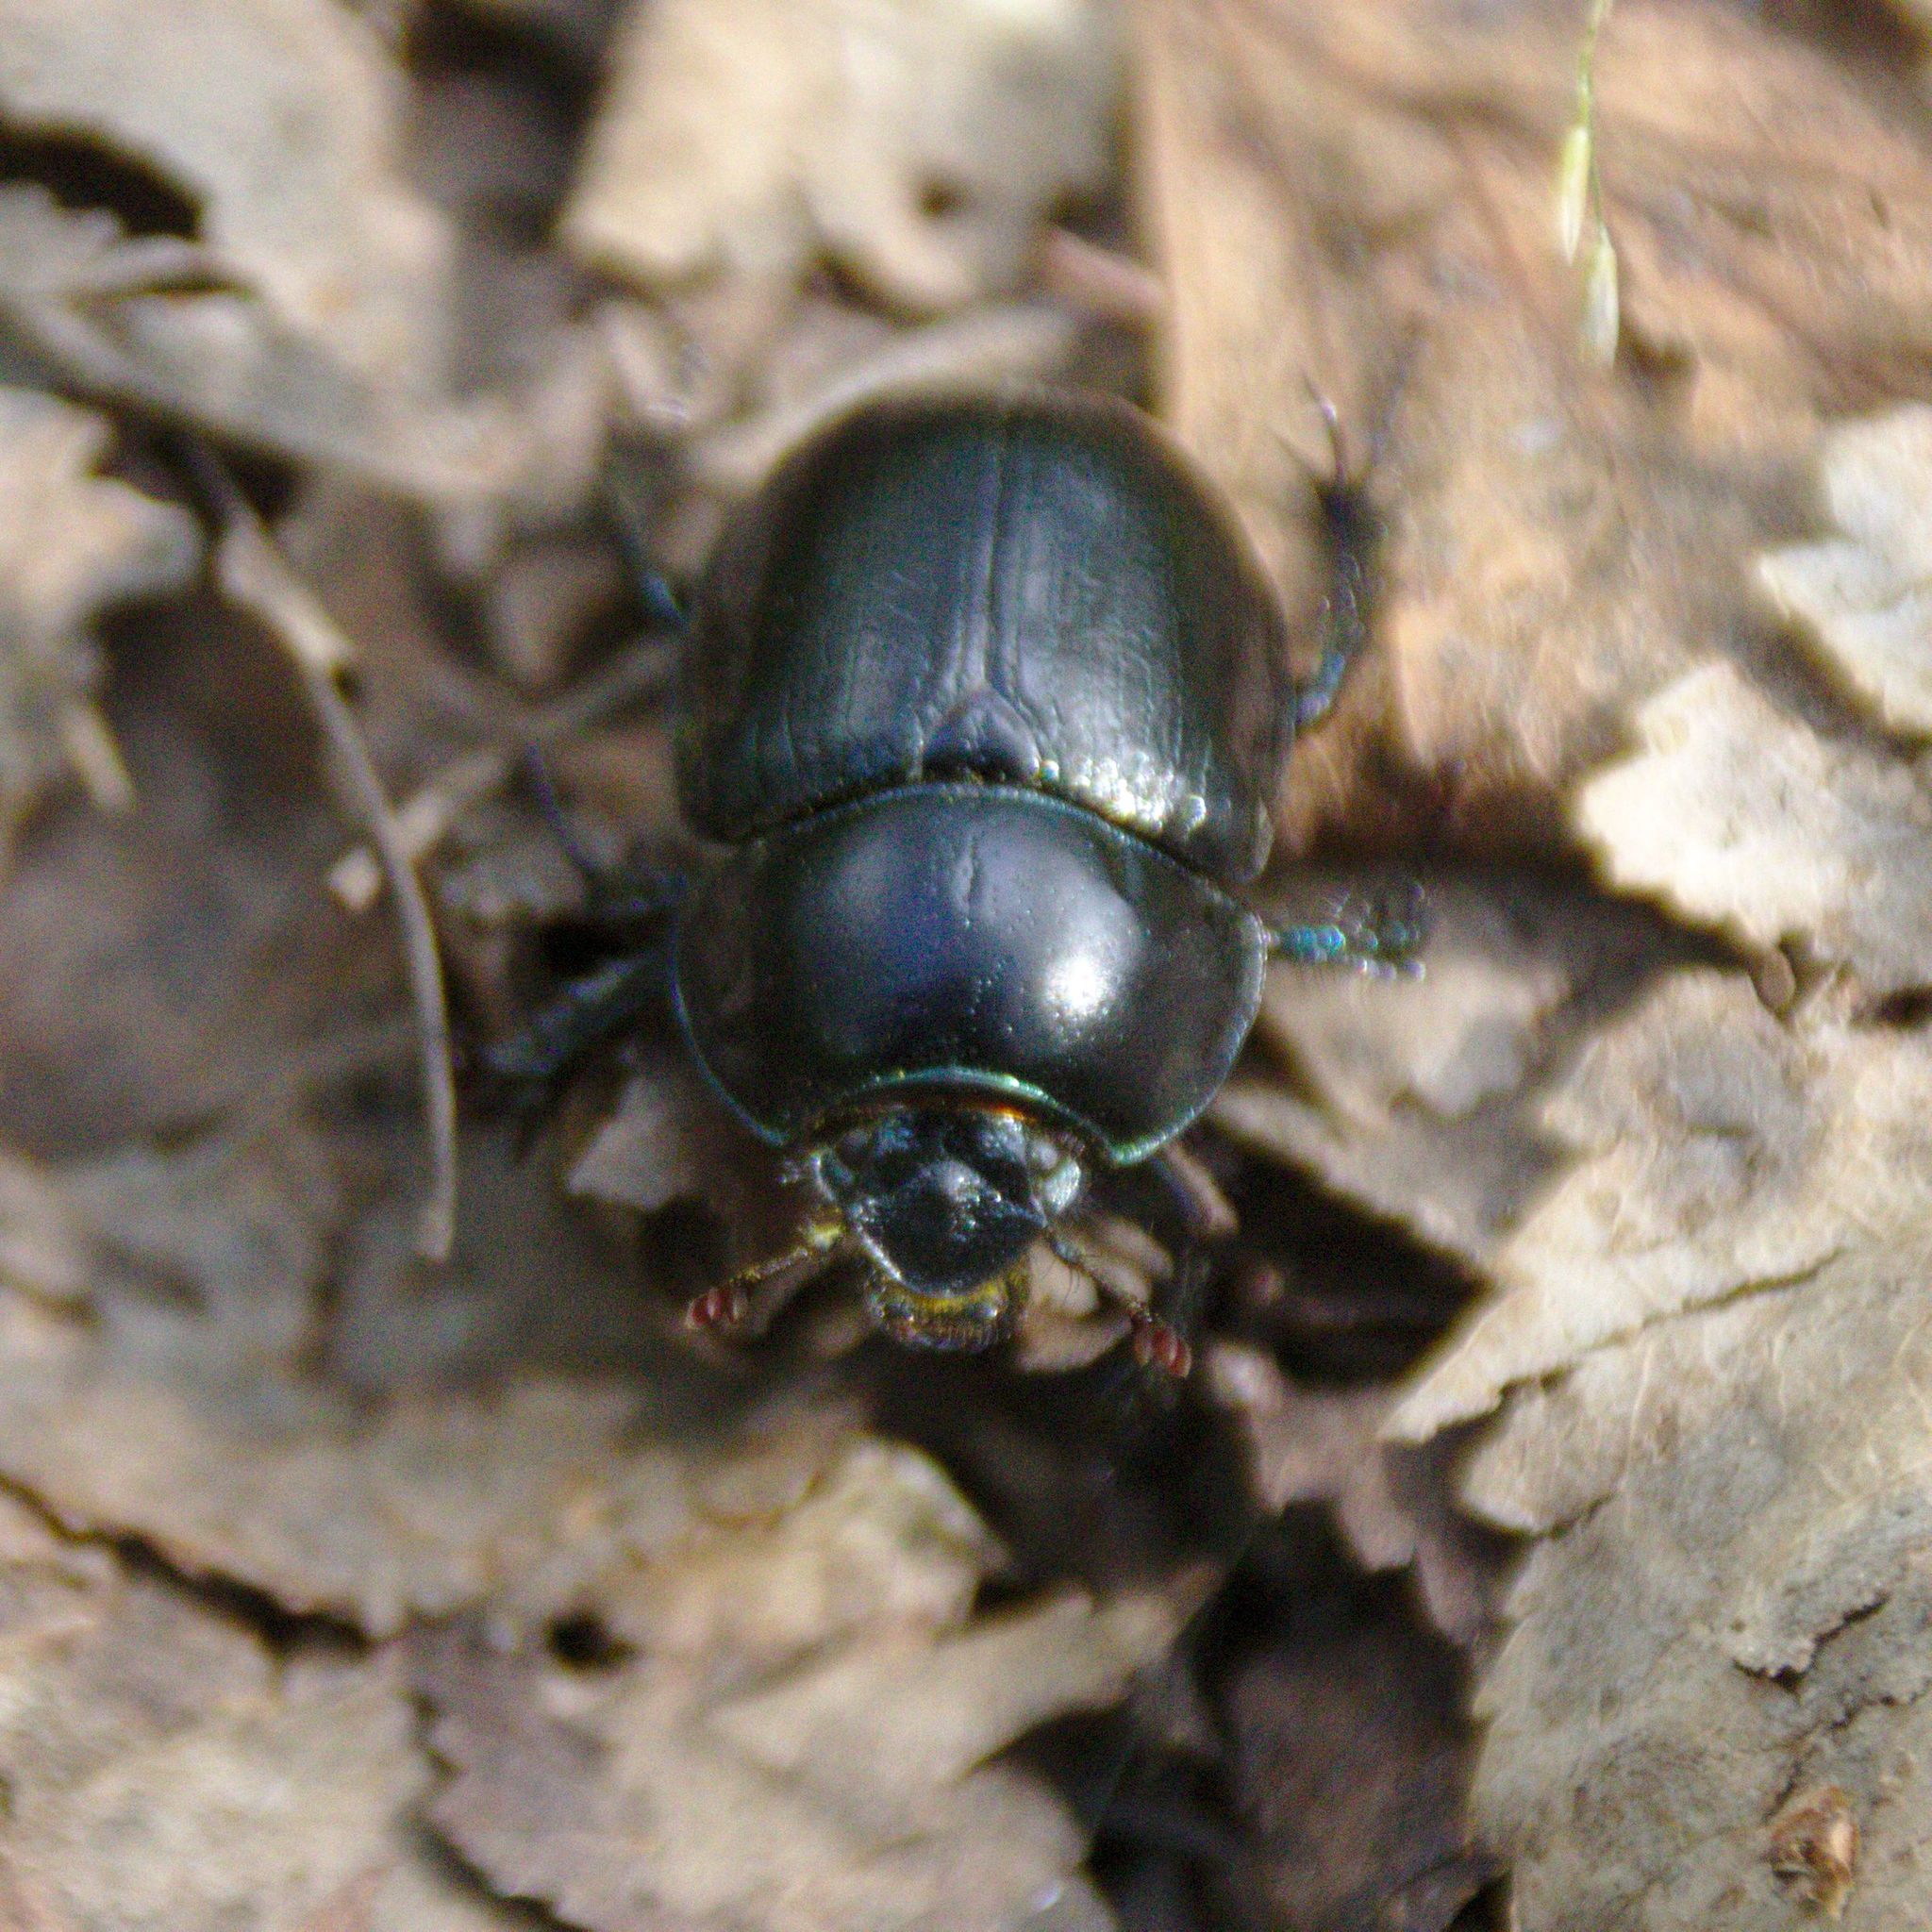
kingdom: Animalia
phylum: Arthropoda
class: Insecta
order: Coleoptera
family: Geotrupidae
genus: Anoplotrupes
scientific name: Anoplotrupes stercorosus
